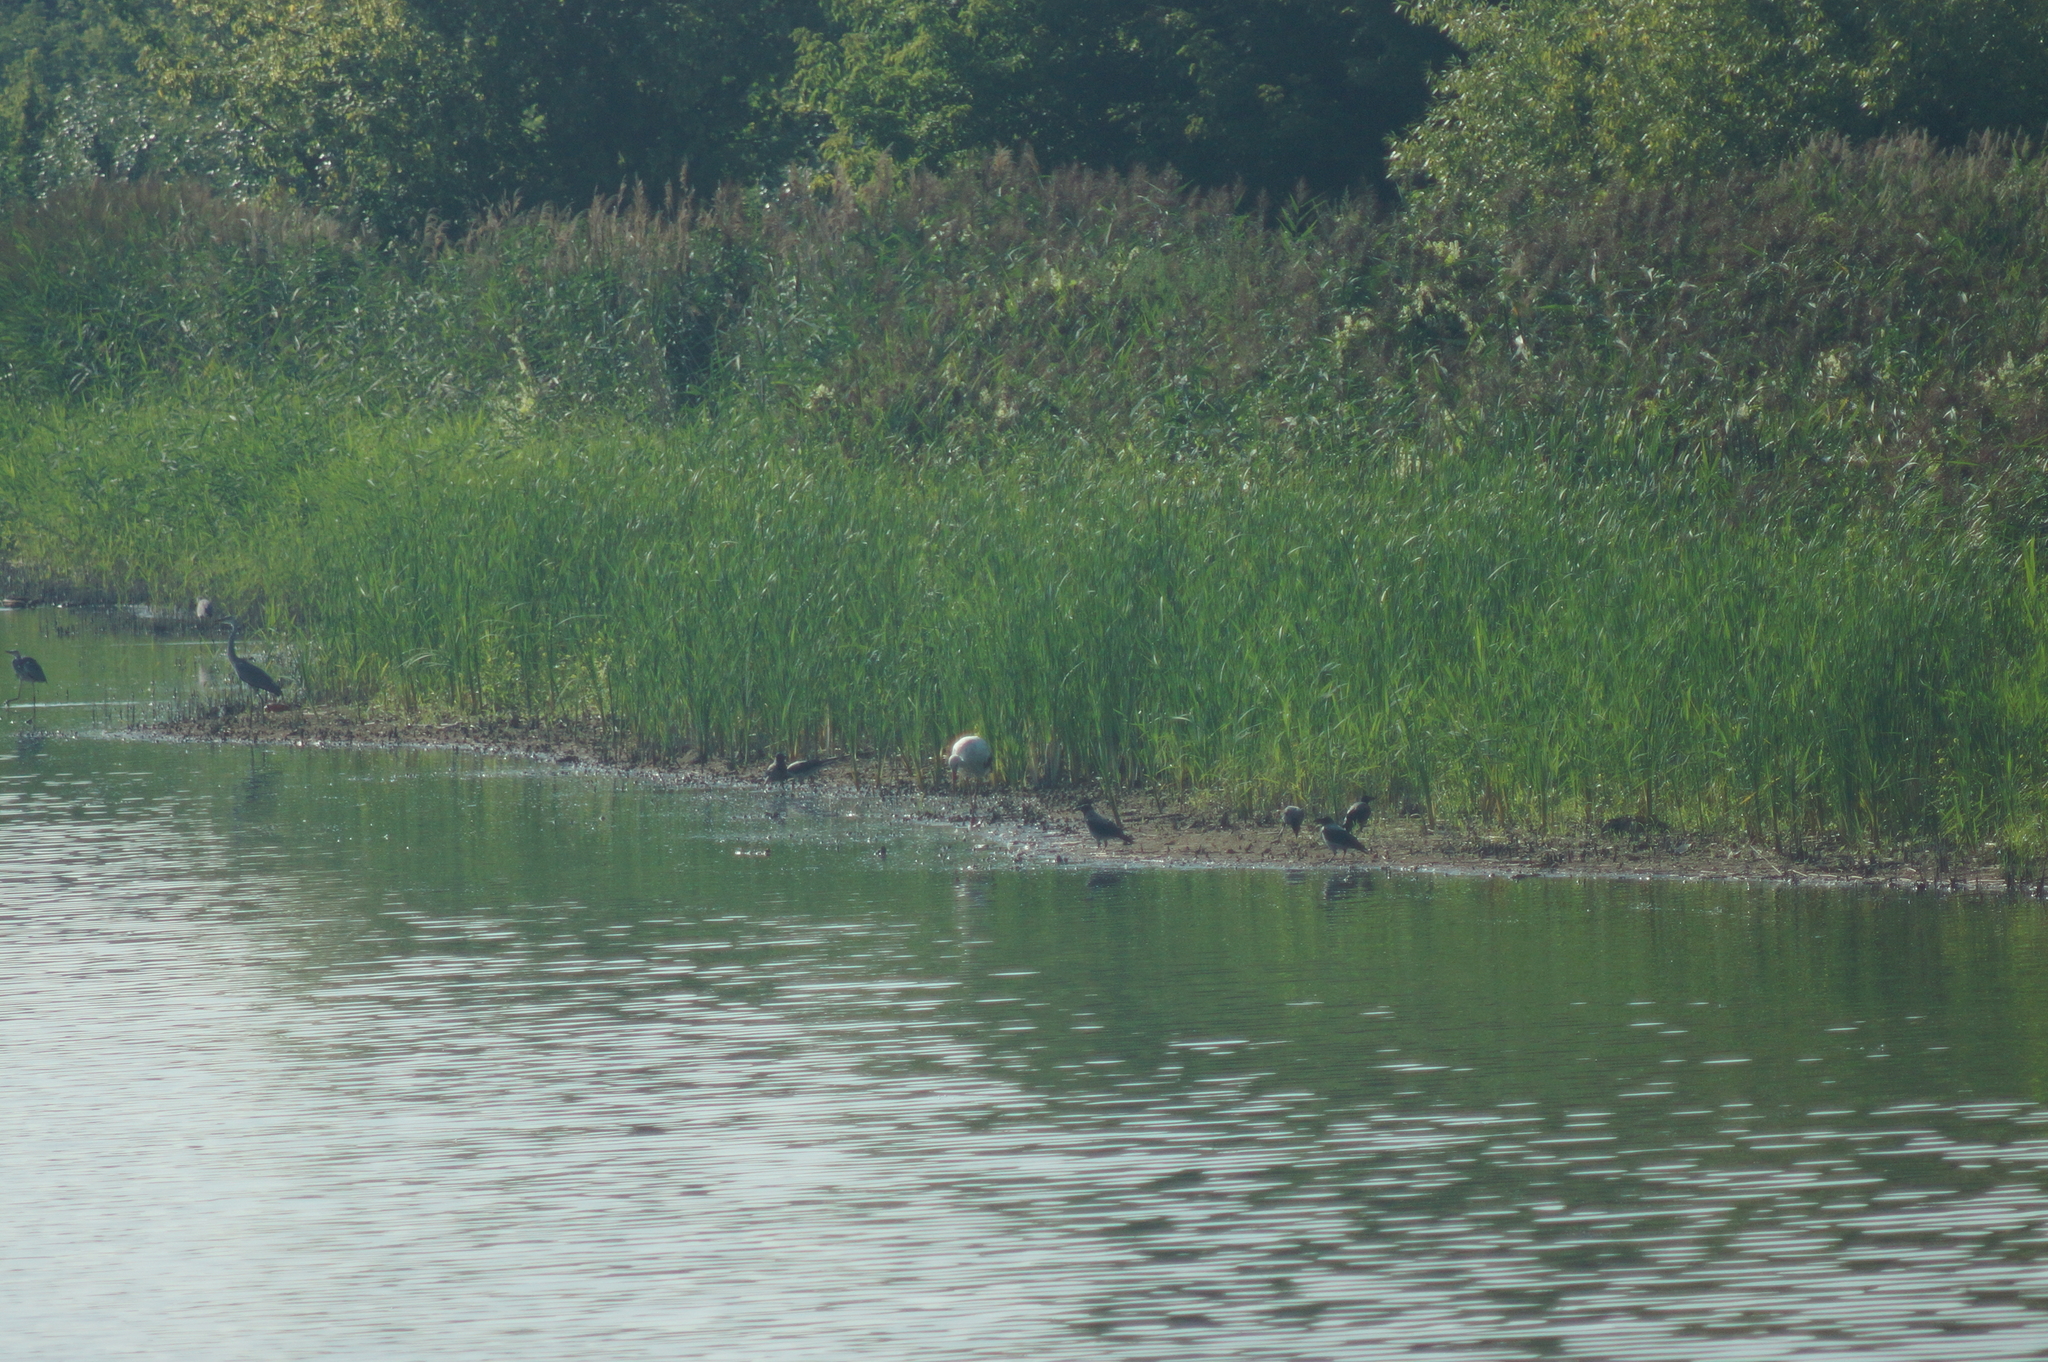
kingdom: Animalia
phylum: Chordata
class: Aves
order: Passeriformes
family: Corvidae
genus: Corvus
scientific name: Corvus cornix
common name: Hooded crow
